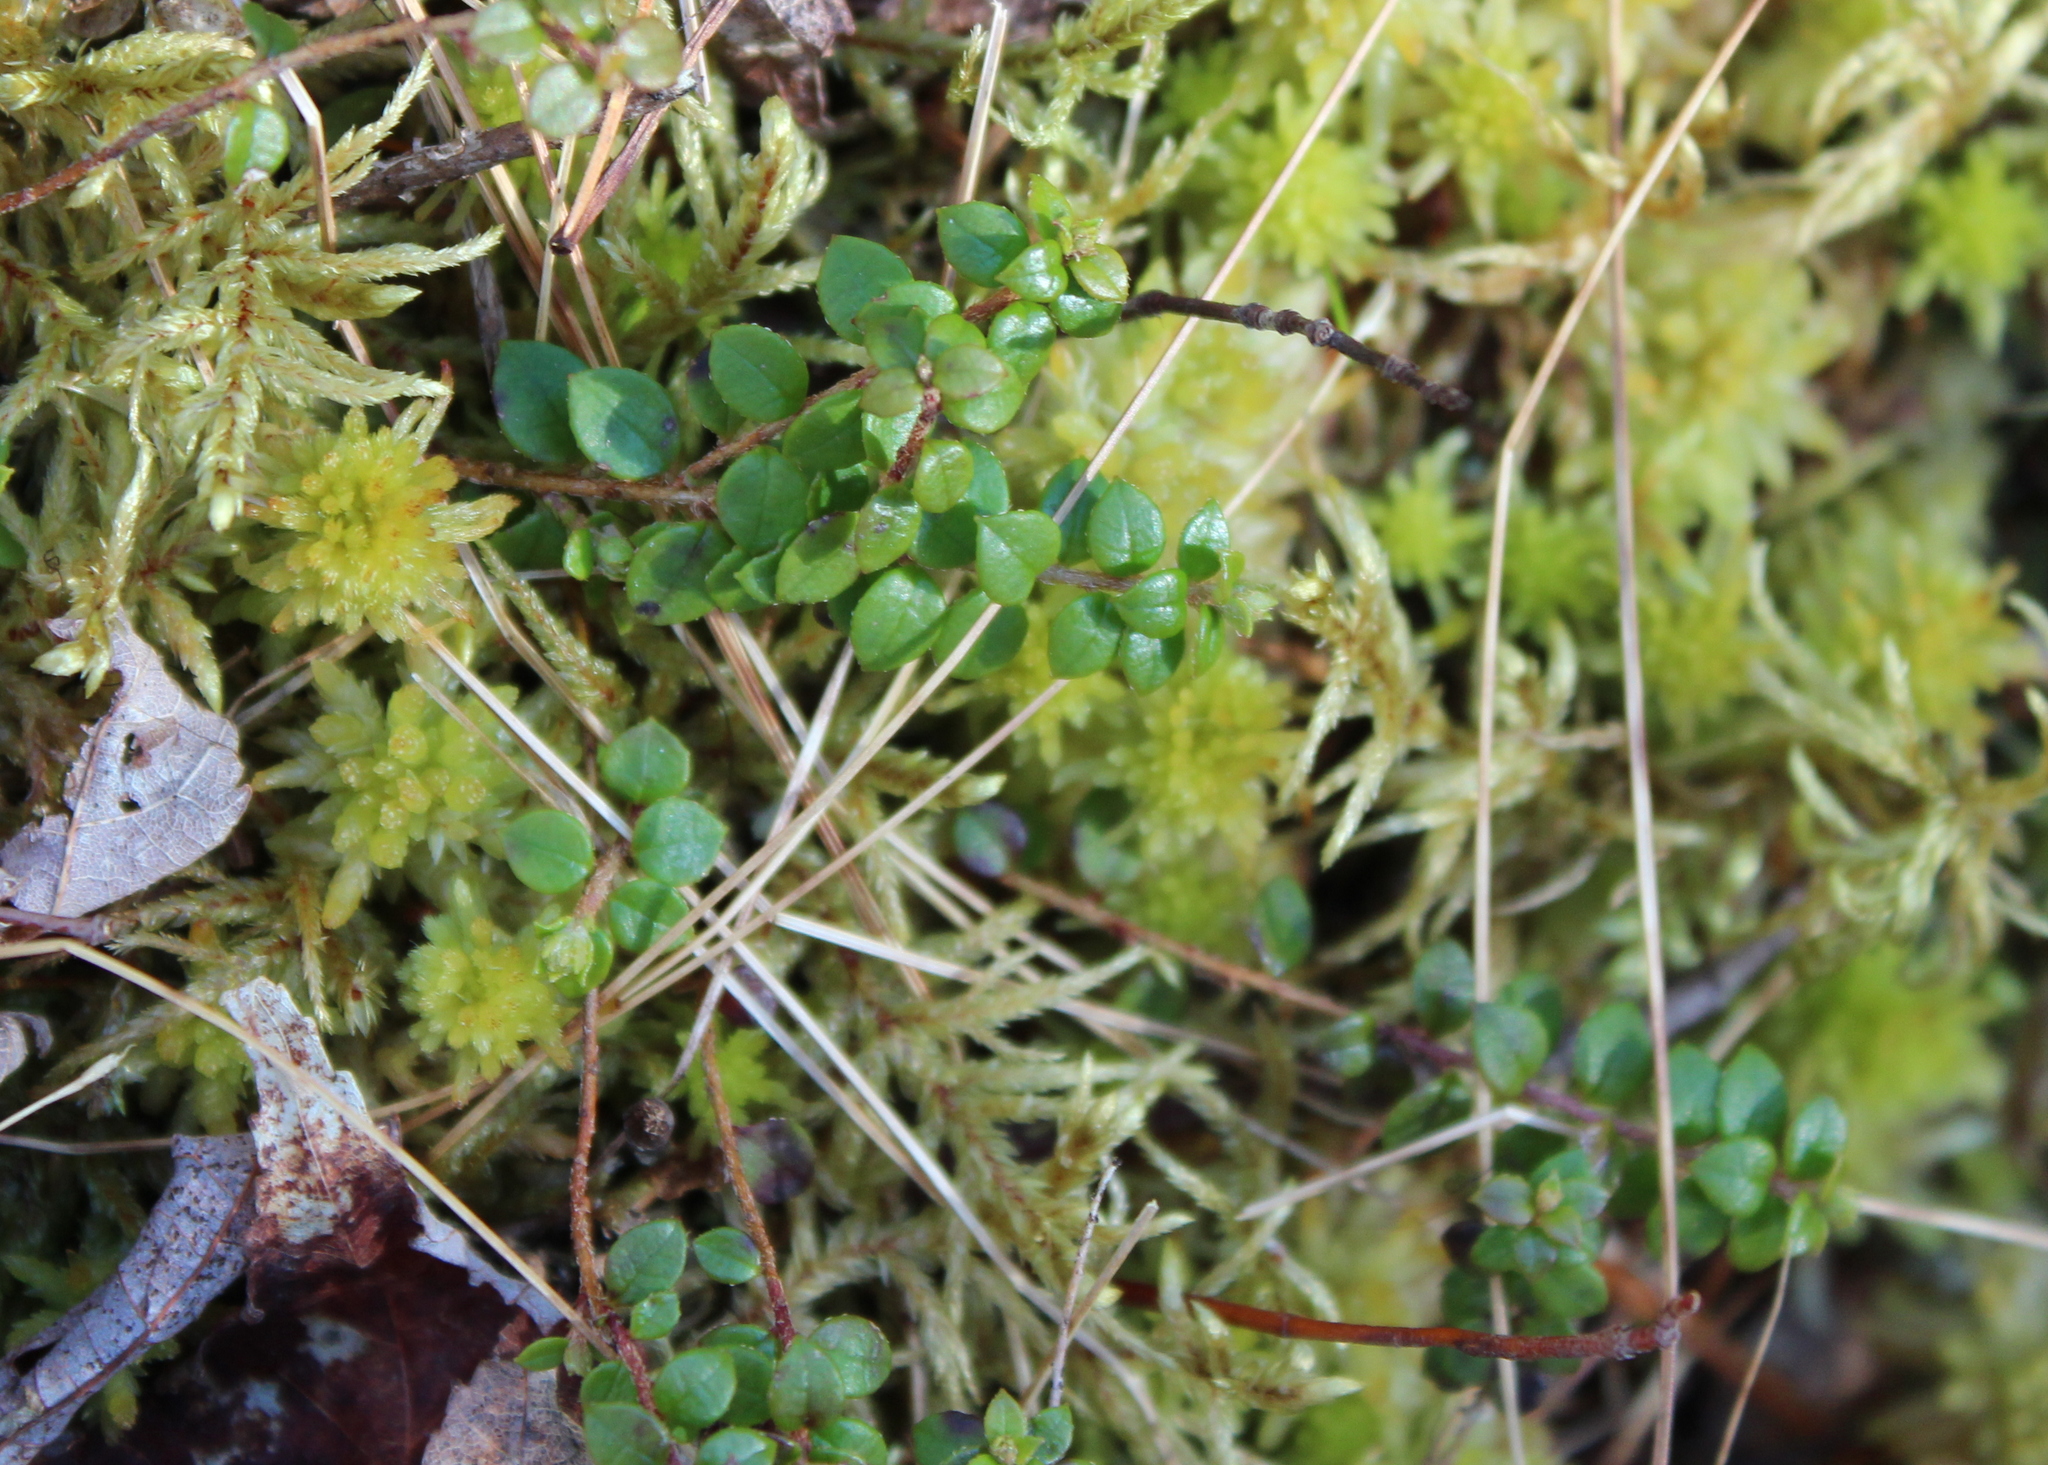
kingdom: Plantae
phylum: Tracheophyta
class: Magnoliopsida
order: Ericales
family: Ericaceae
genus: Gaultheria
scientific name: Gaultheria hispidula
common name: Cancer wintergreen
